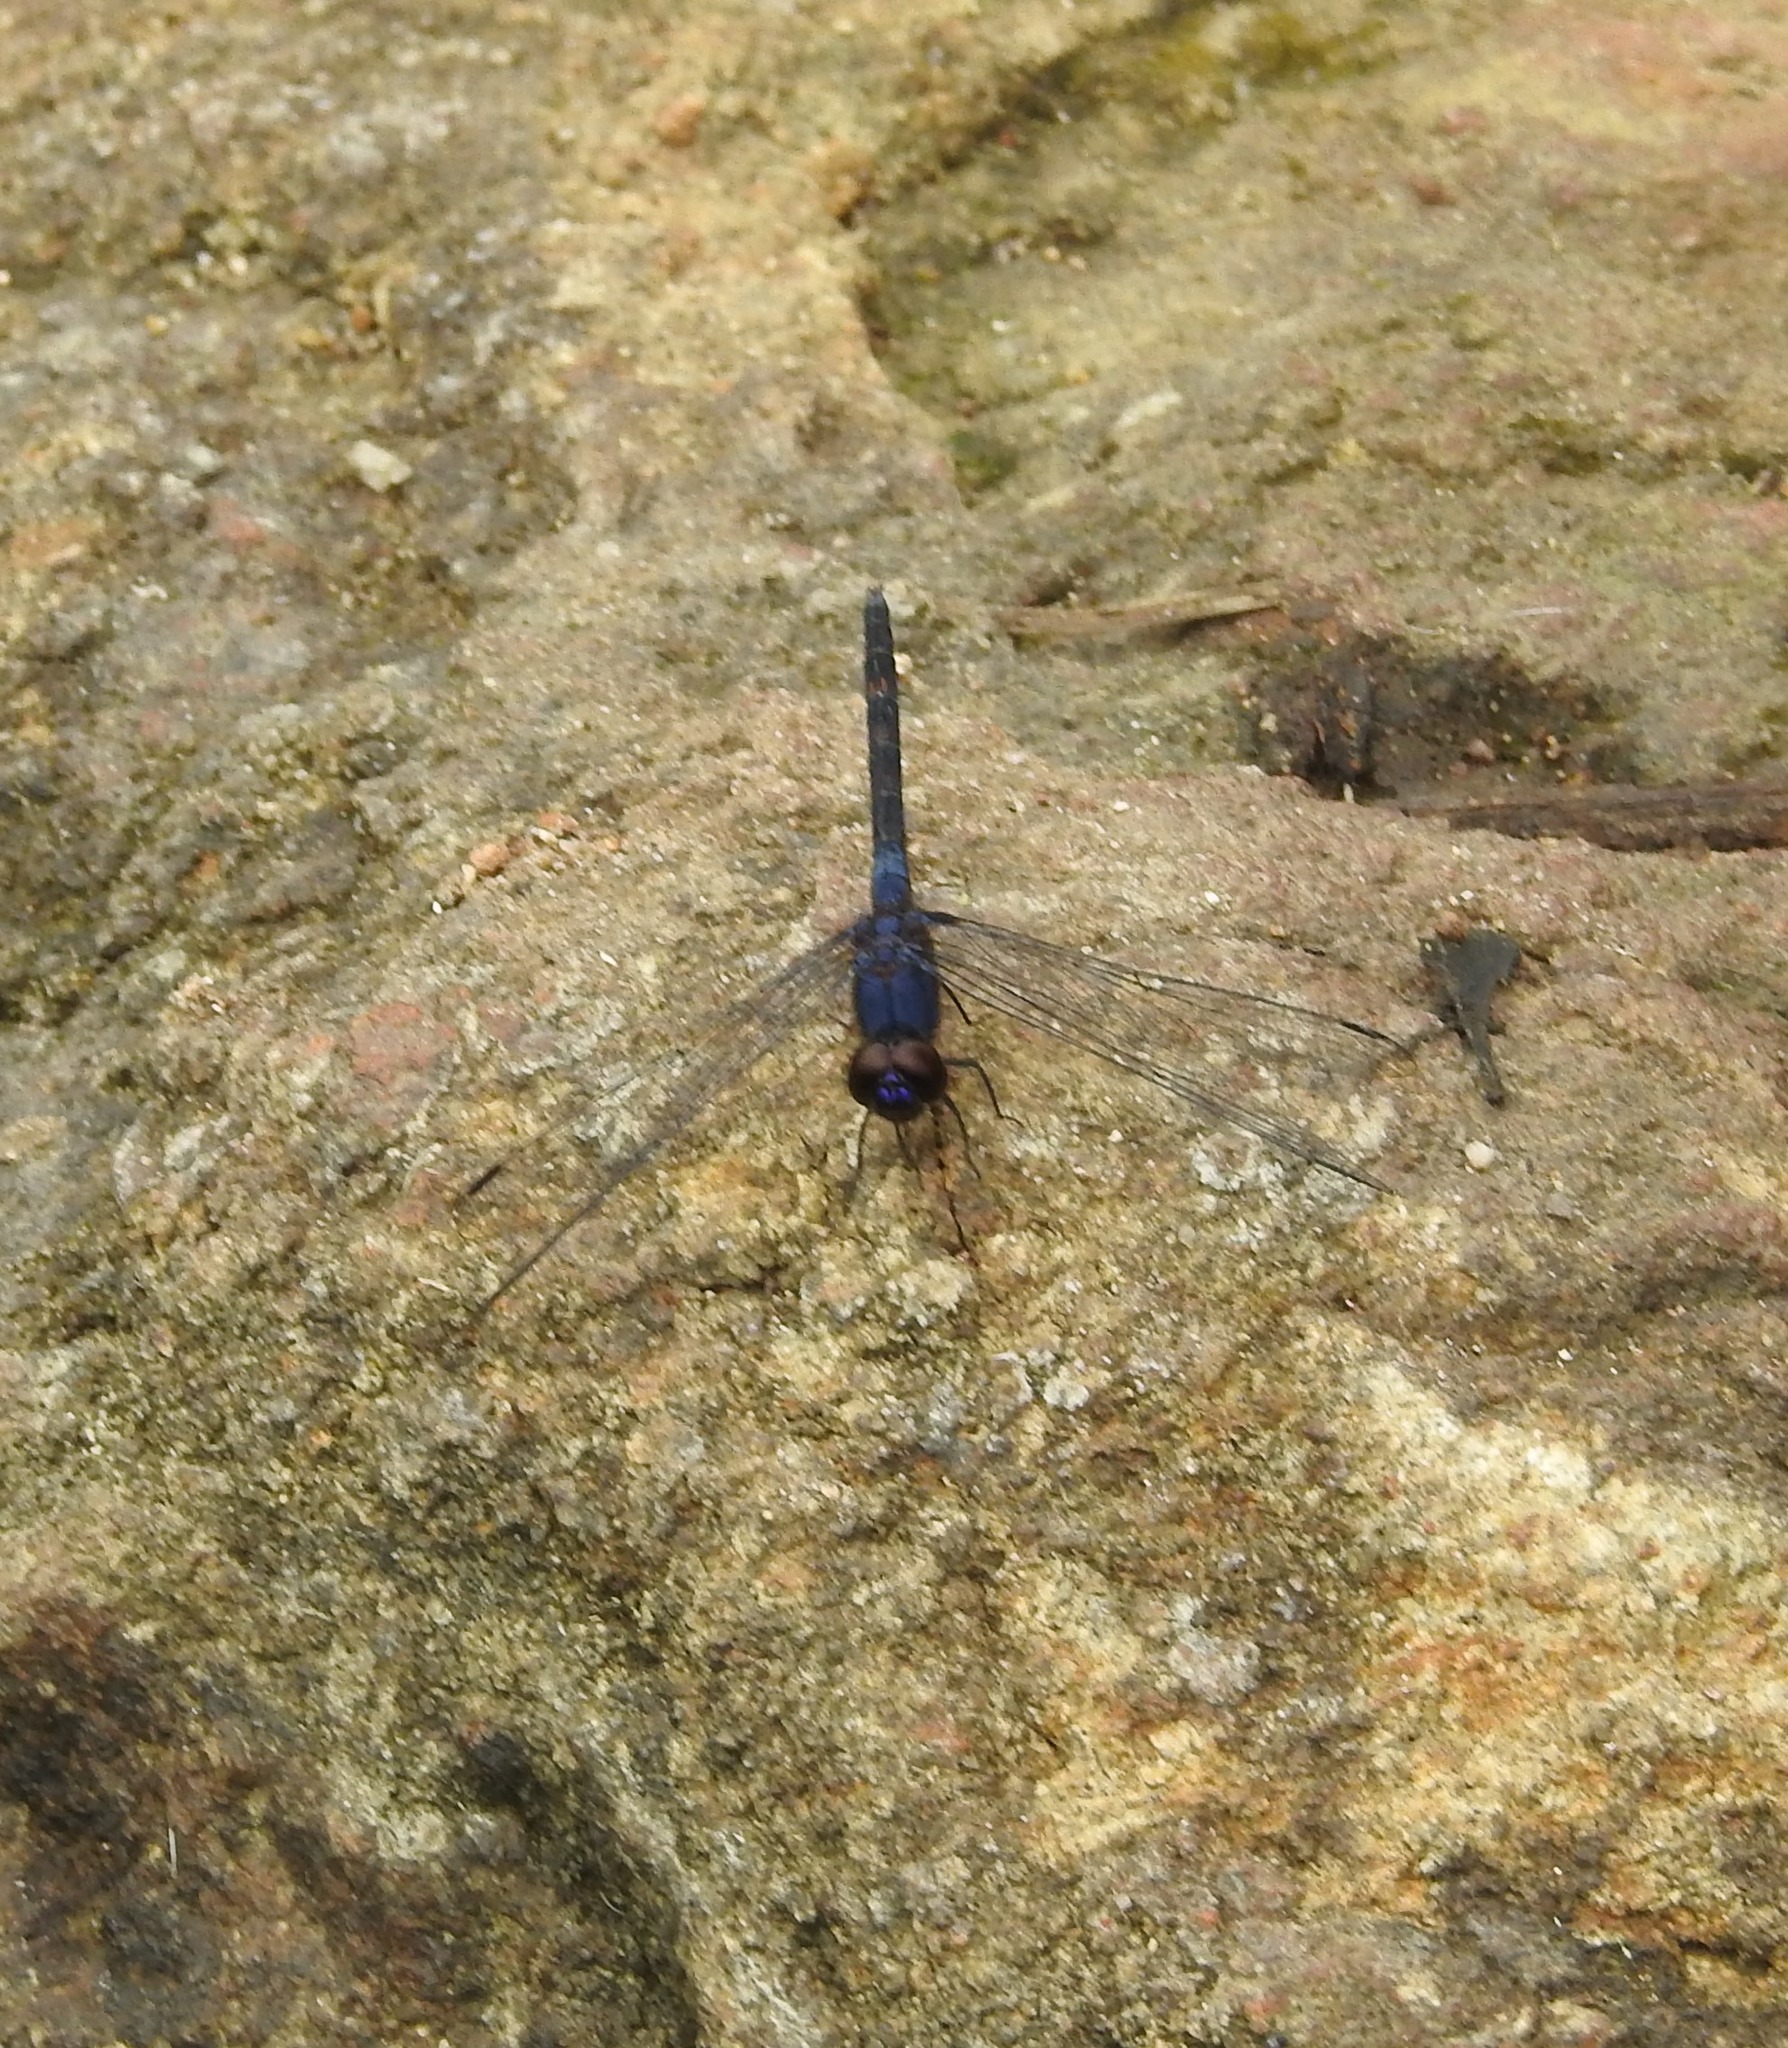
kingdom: Animalia
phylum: Arthropoda
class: Insecta
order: Odonata
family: Libellulidae
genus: Trithemis
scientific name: Trithemis festiva
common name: Indigo dropwing
